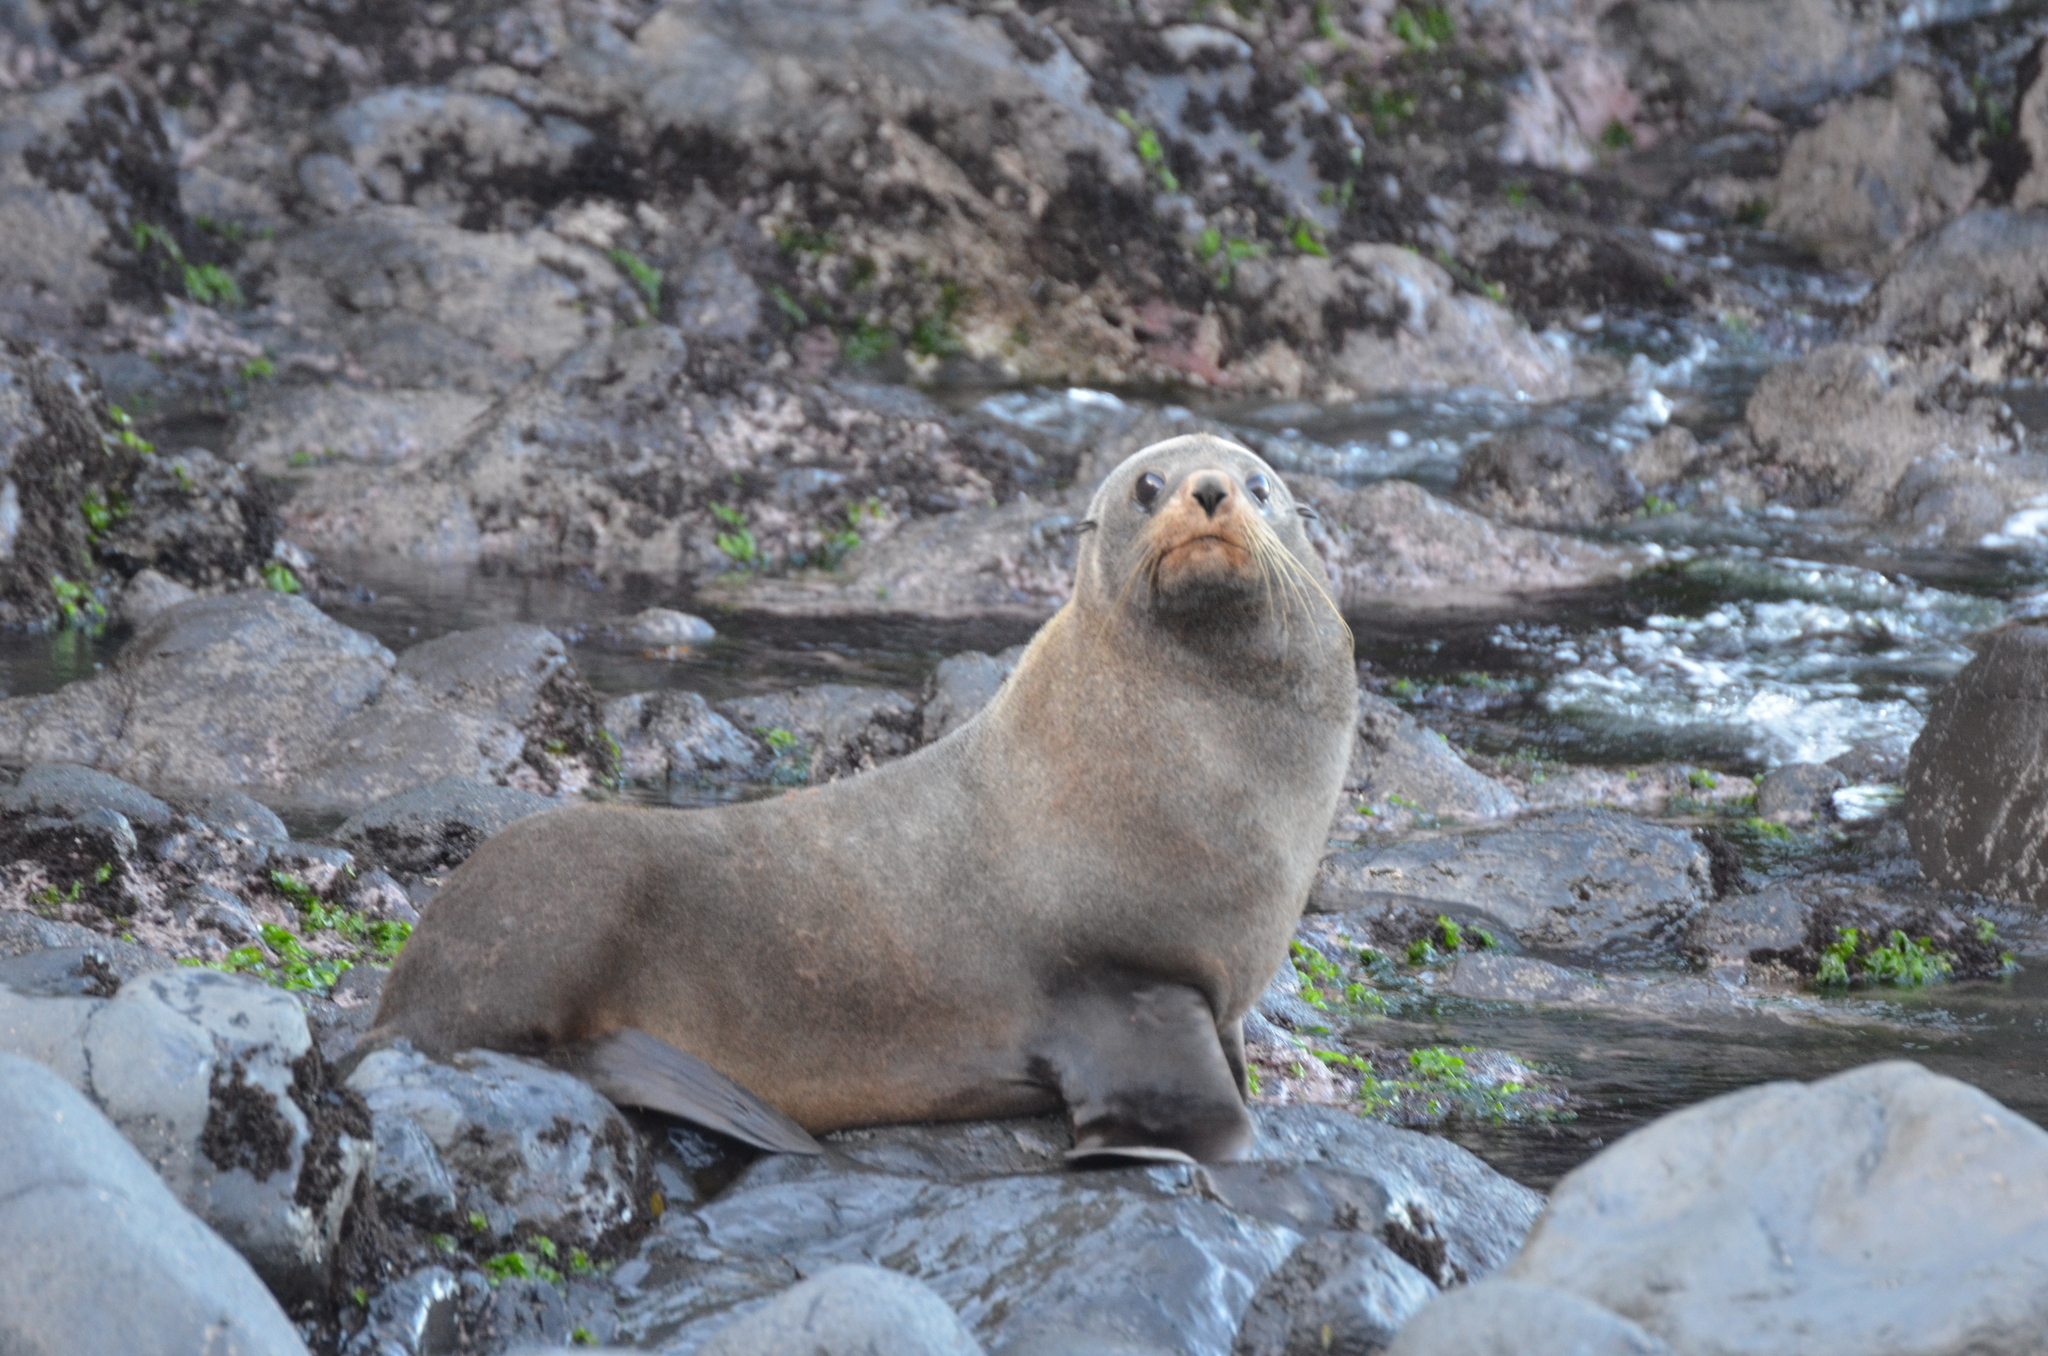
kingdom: Animalia
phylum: Chordata
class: Mammalia
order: Carnivora
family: Otariidae
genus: Arctocephalus
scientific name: Arctocephalus forsteri
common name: New zealand fur seal
